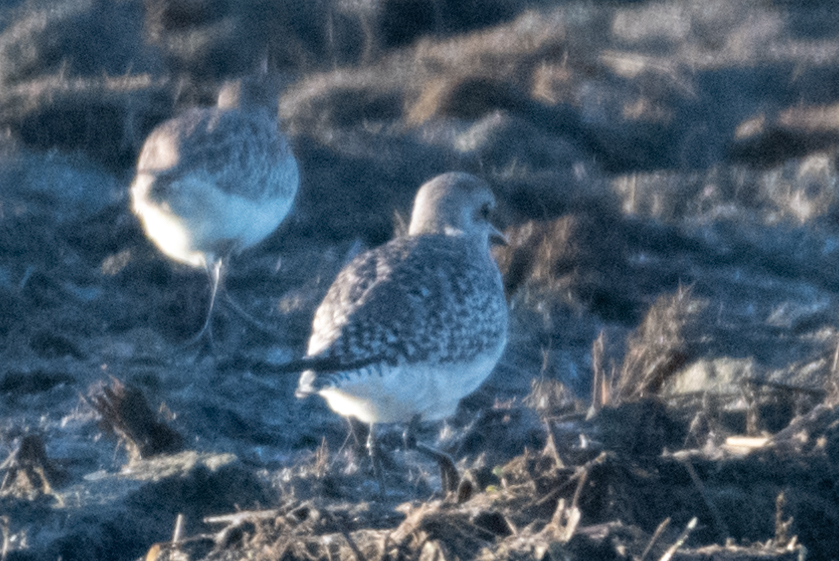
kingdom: Animalia
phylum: Chordata
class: Aves
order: Charadriiformes
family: Charadriidae
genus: Pluvialis
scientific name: Pluvialis squatarola
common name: Grey plover
